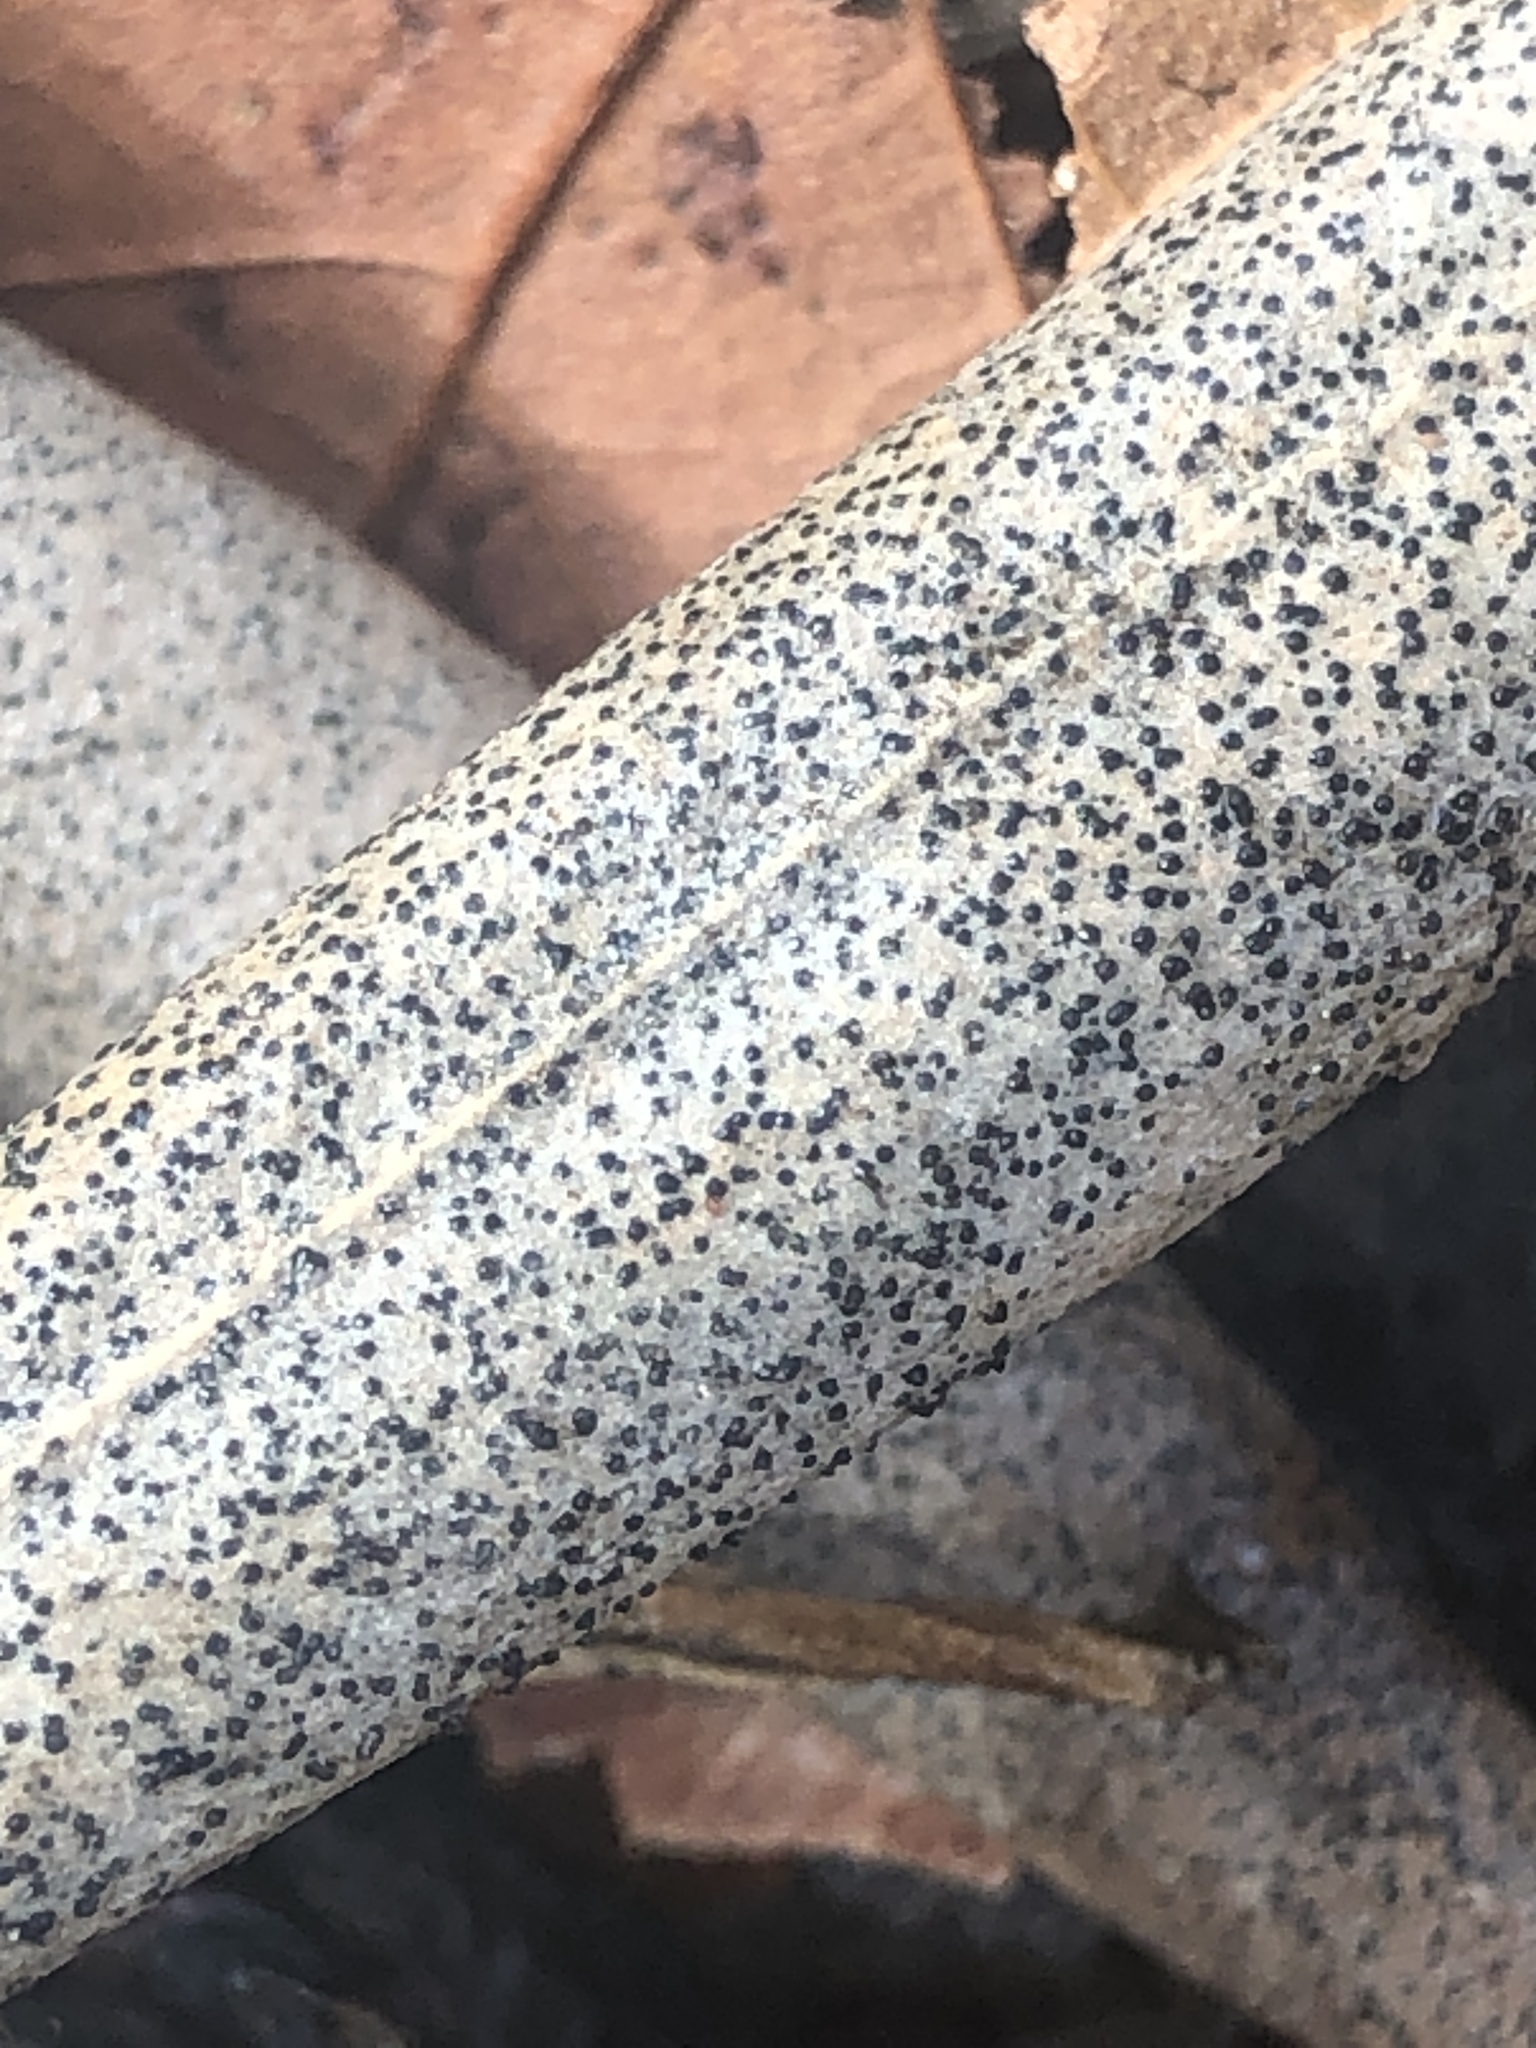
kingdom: Fungi
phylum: Ascomycota
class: Dothideomycetes
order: Botryosphaeriales
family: Botryosphaeriaceae
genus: Dothiora
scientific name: Dothiora oleae
